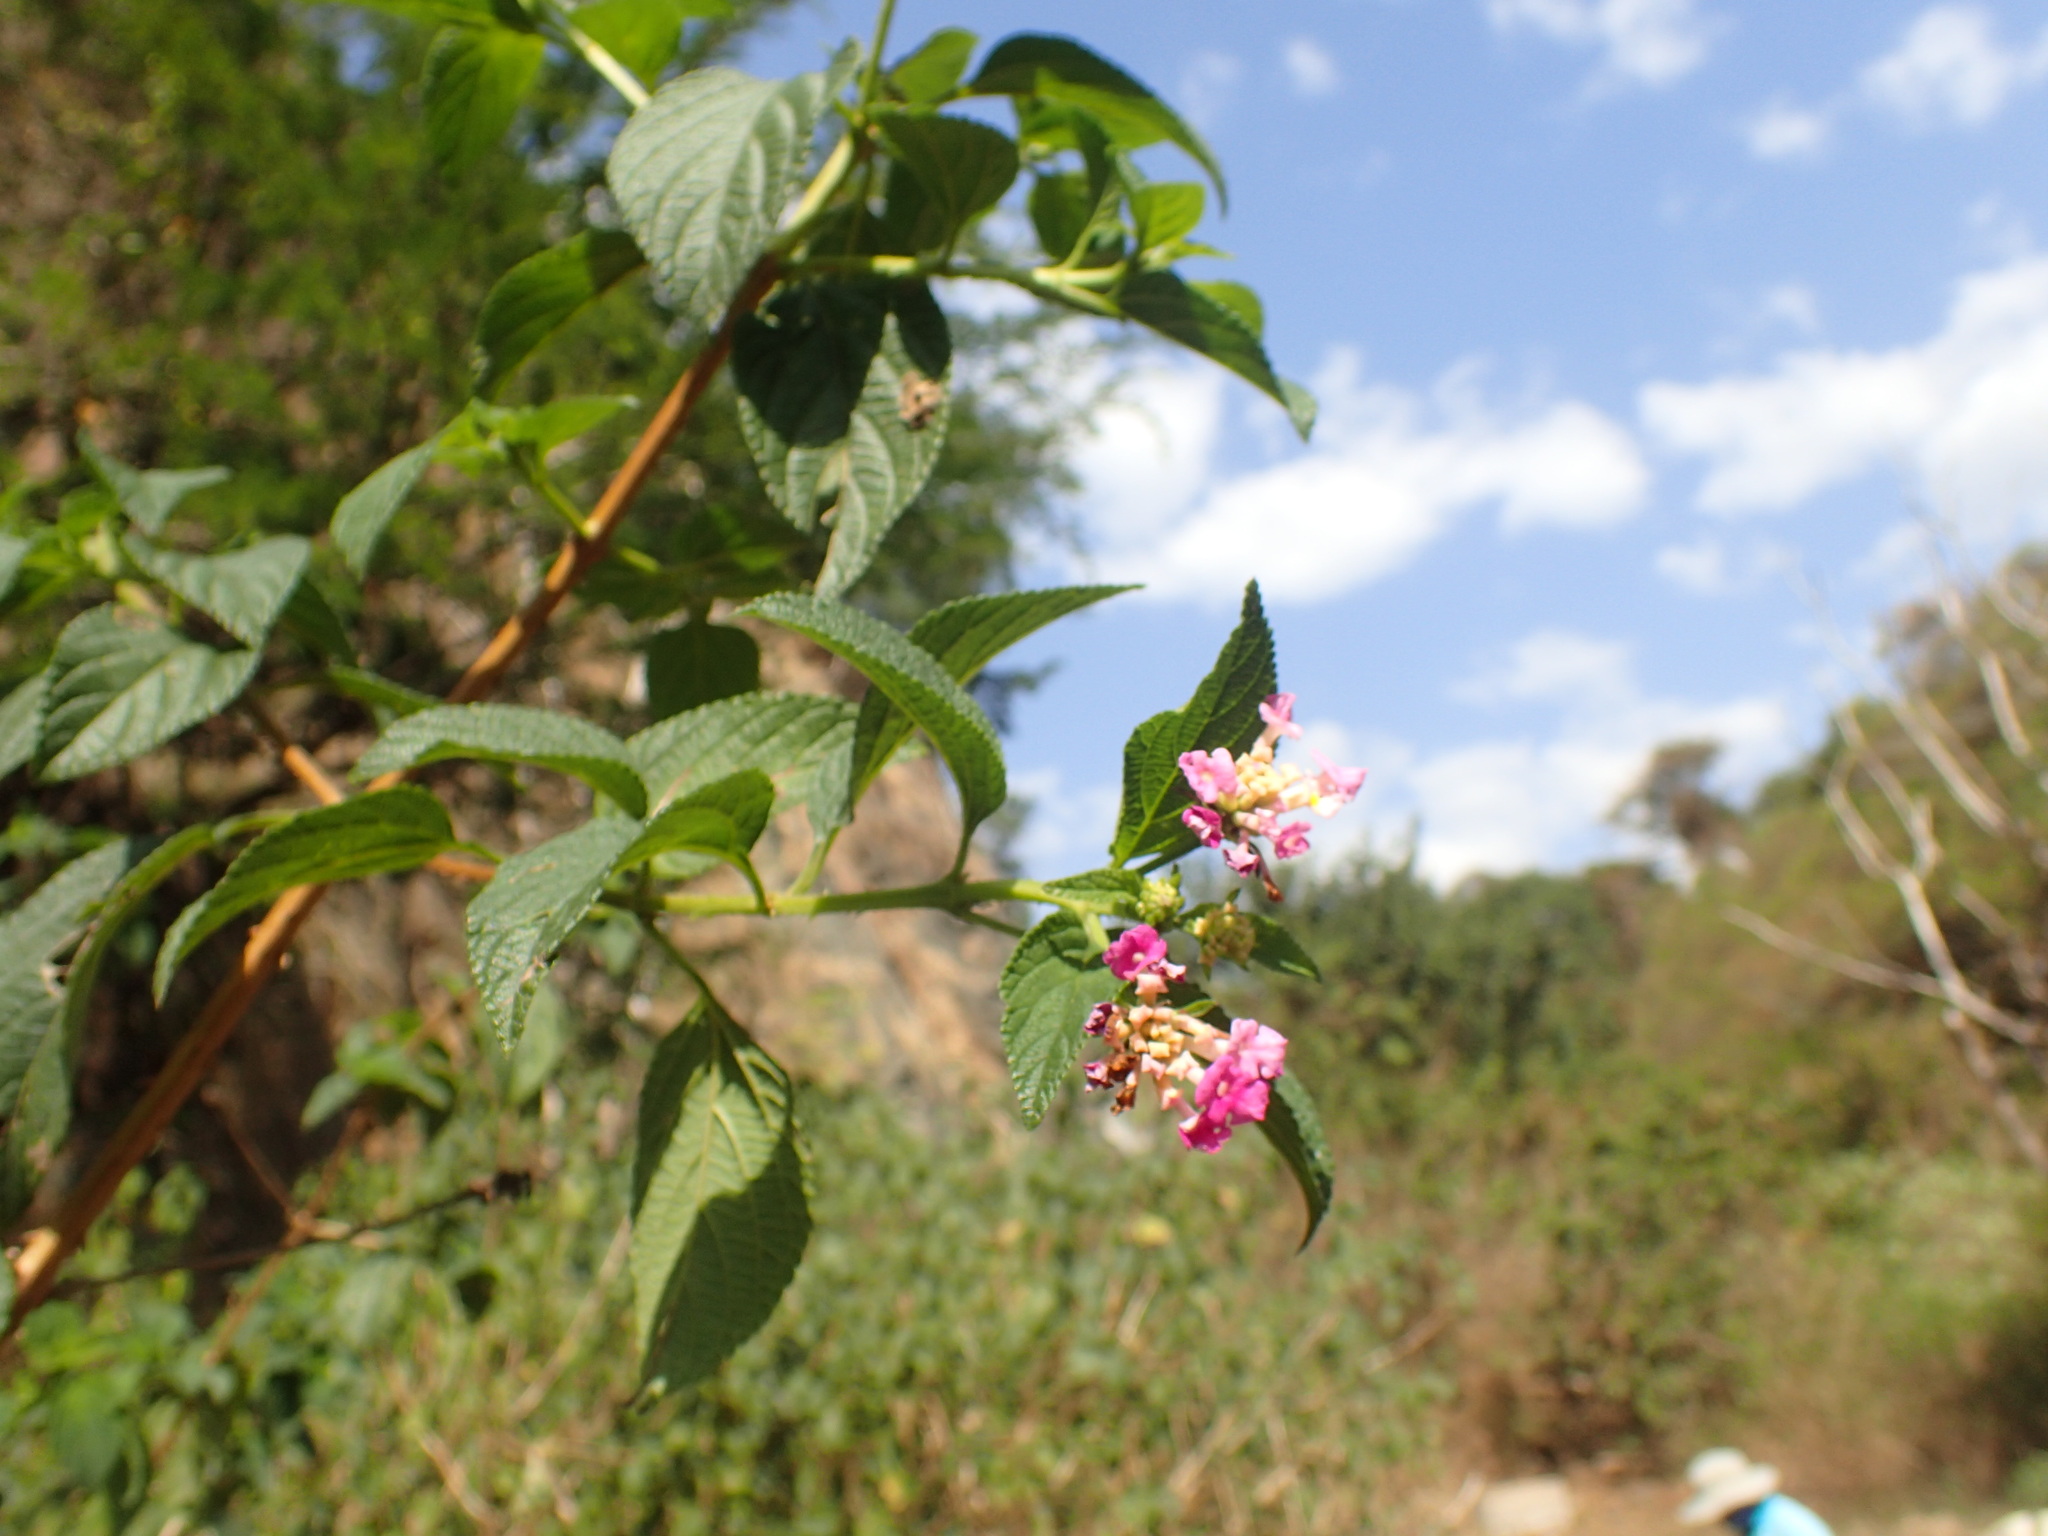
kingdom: Plantae
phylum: Tracheophyta
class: Magnoliopsida
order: Lamiales
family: Verbenaceae
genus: Lantana
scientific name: Lantana camara
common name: Lantana
